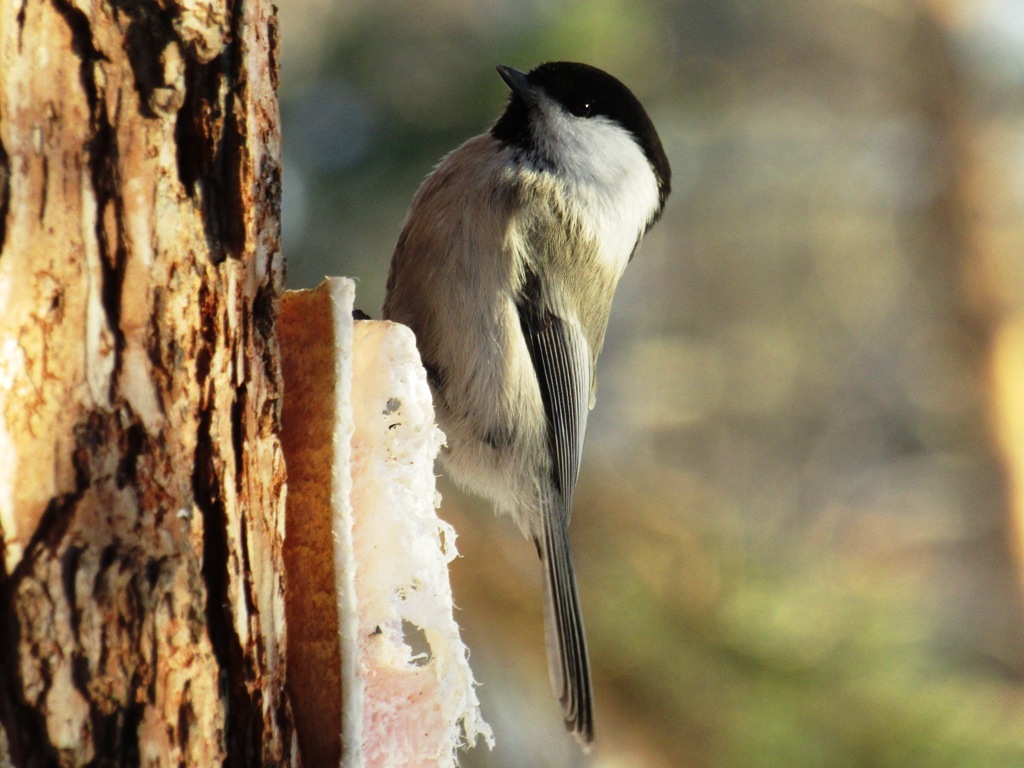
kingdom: Animalia
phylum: Chordata
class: Aves
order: Passeriformes
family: Paridae
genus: Poecile
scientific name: Poecile montanus
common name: Willow tit
